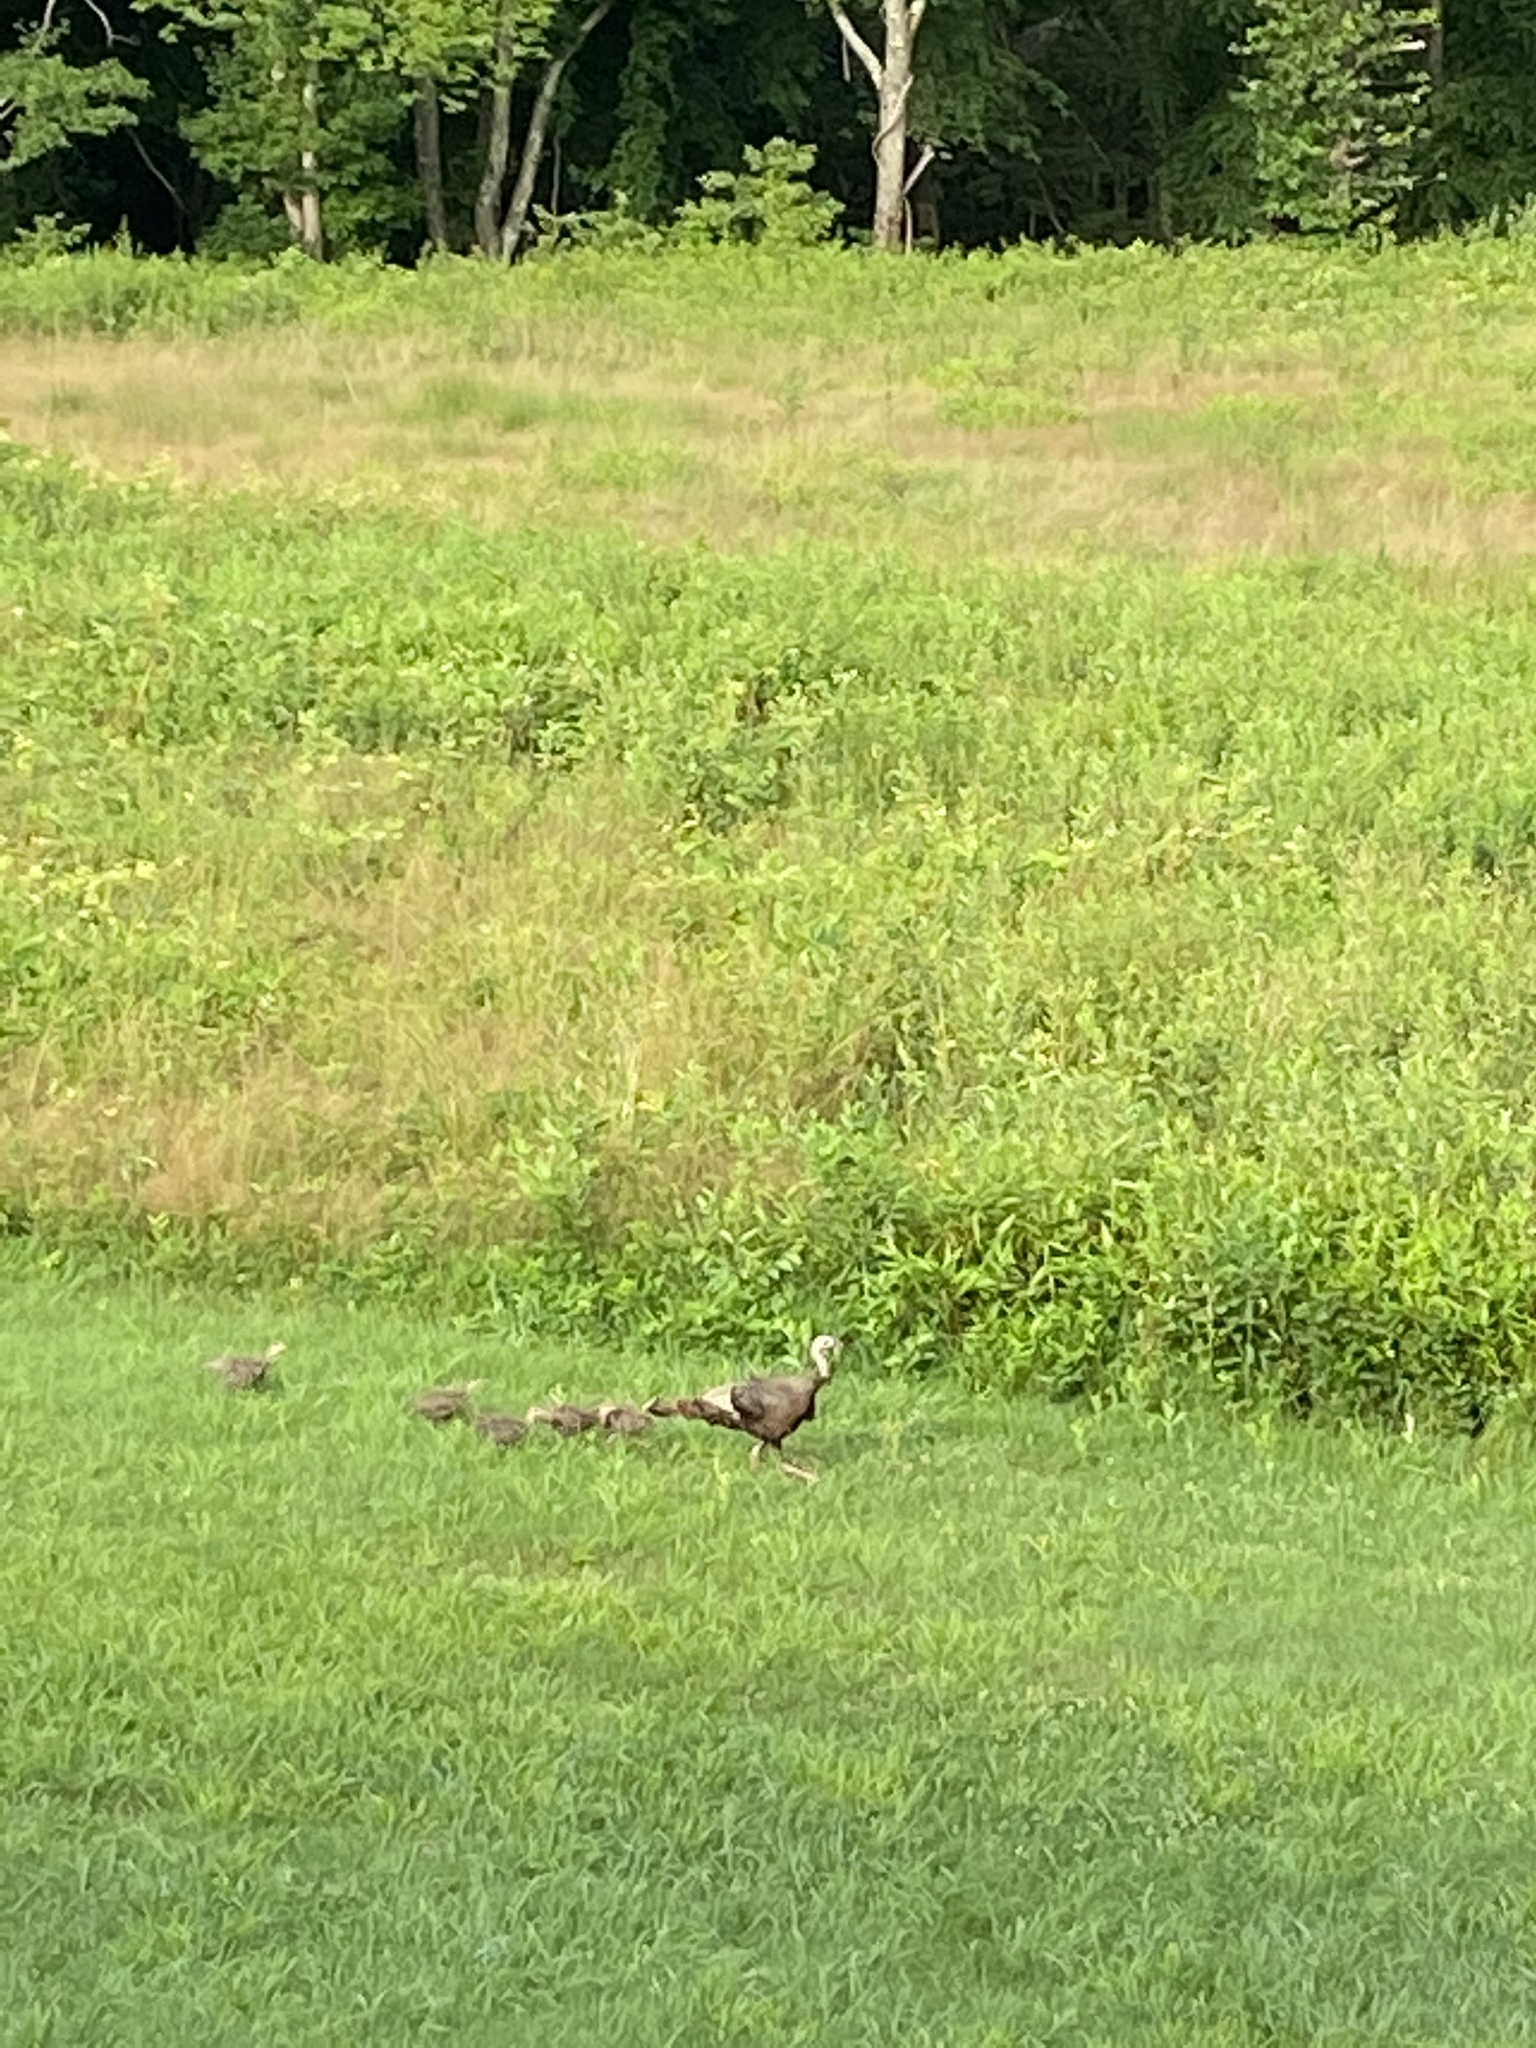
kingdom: Animalia
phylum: Chordata
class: Aves
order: Galliformes
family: Phasianidae
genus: Meleagris
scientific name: Meleagris gallopavo
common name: Wild turkey
